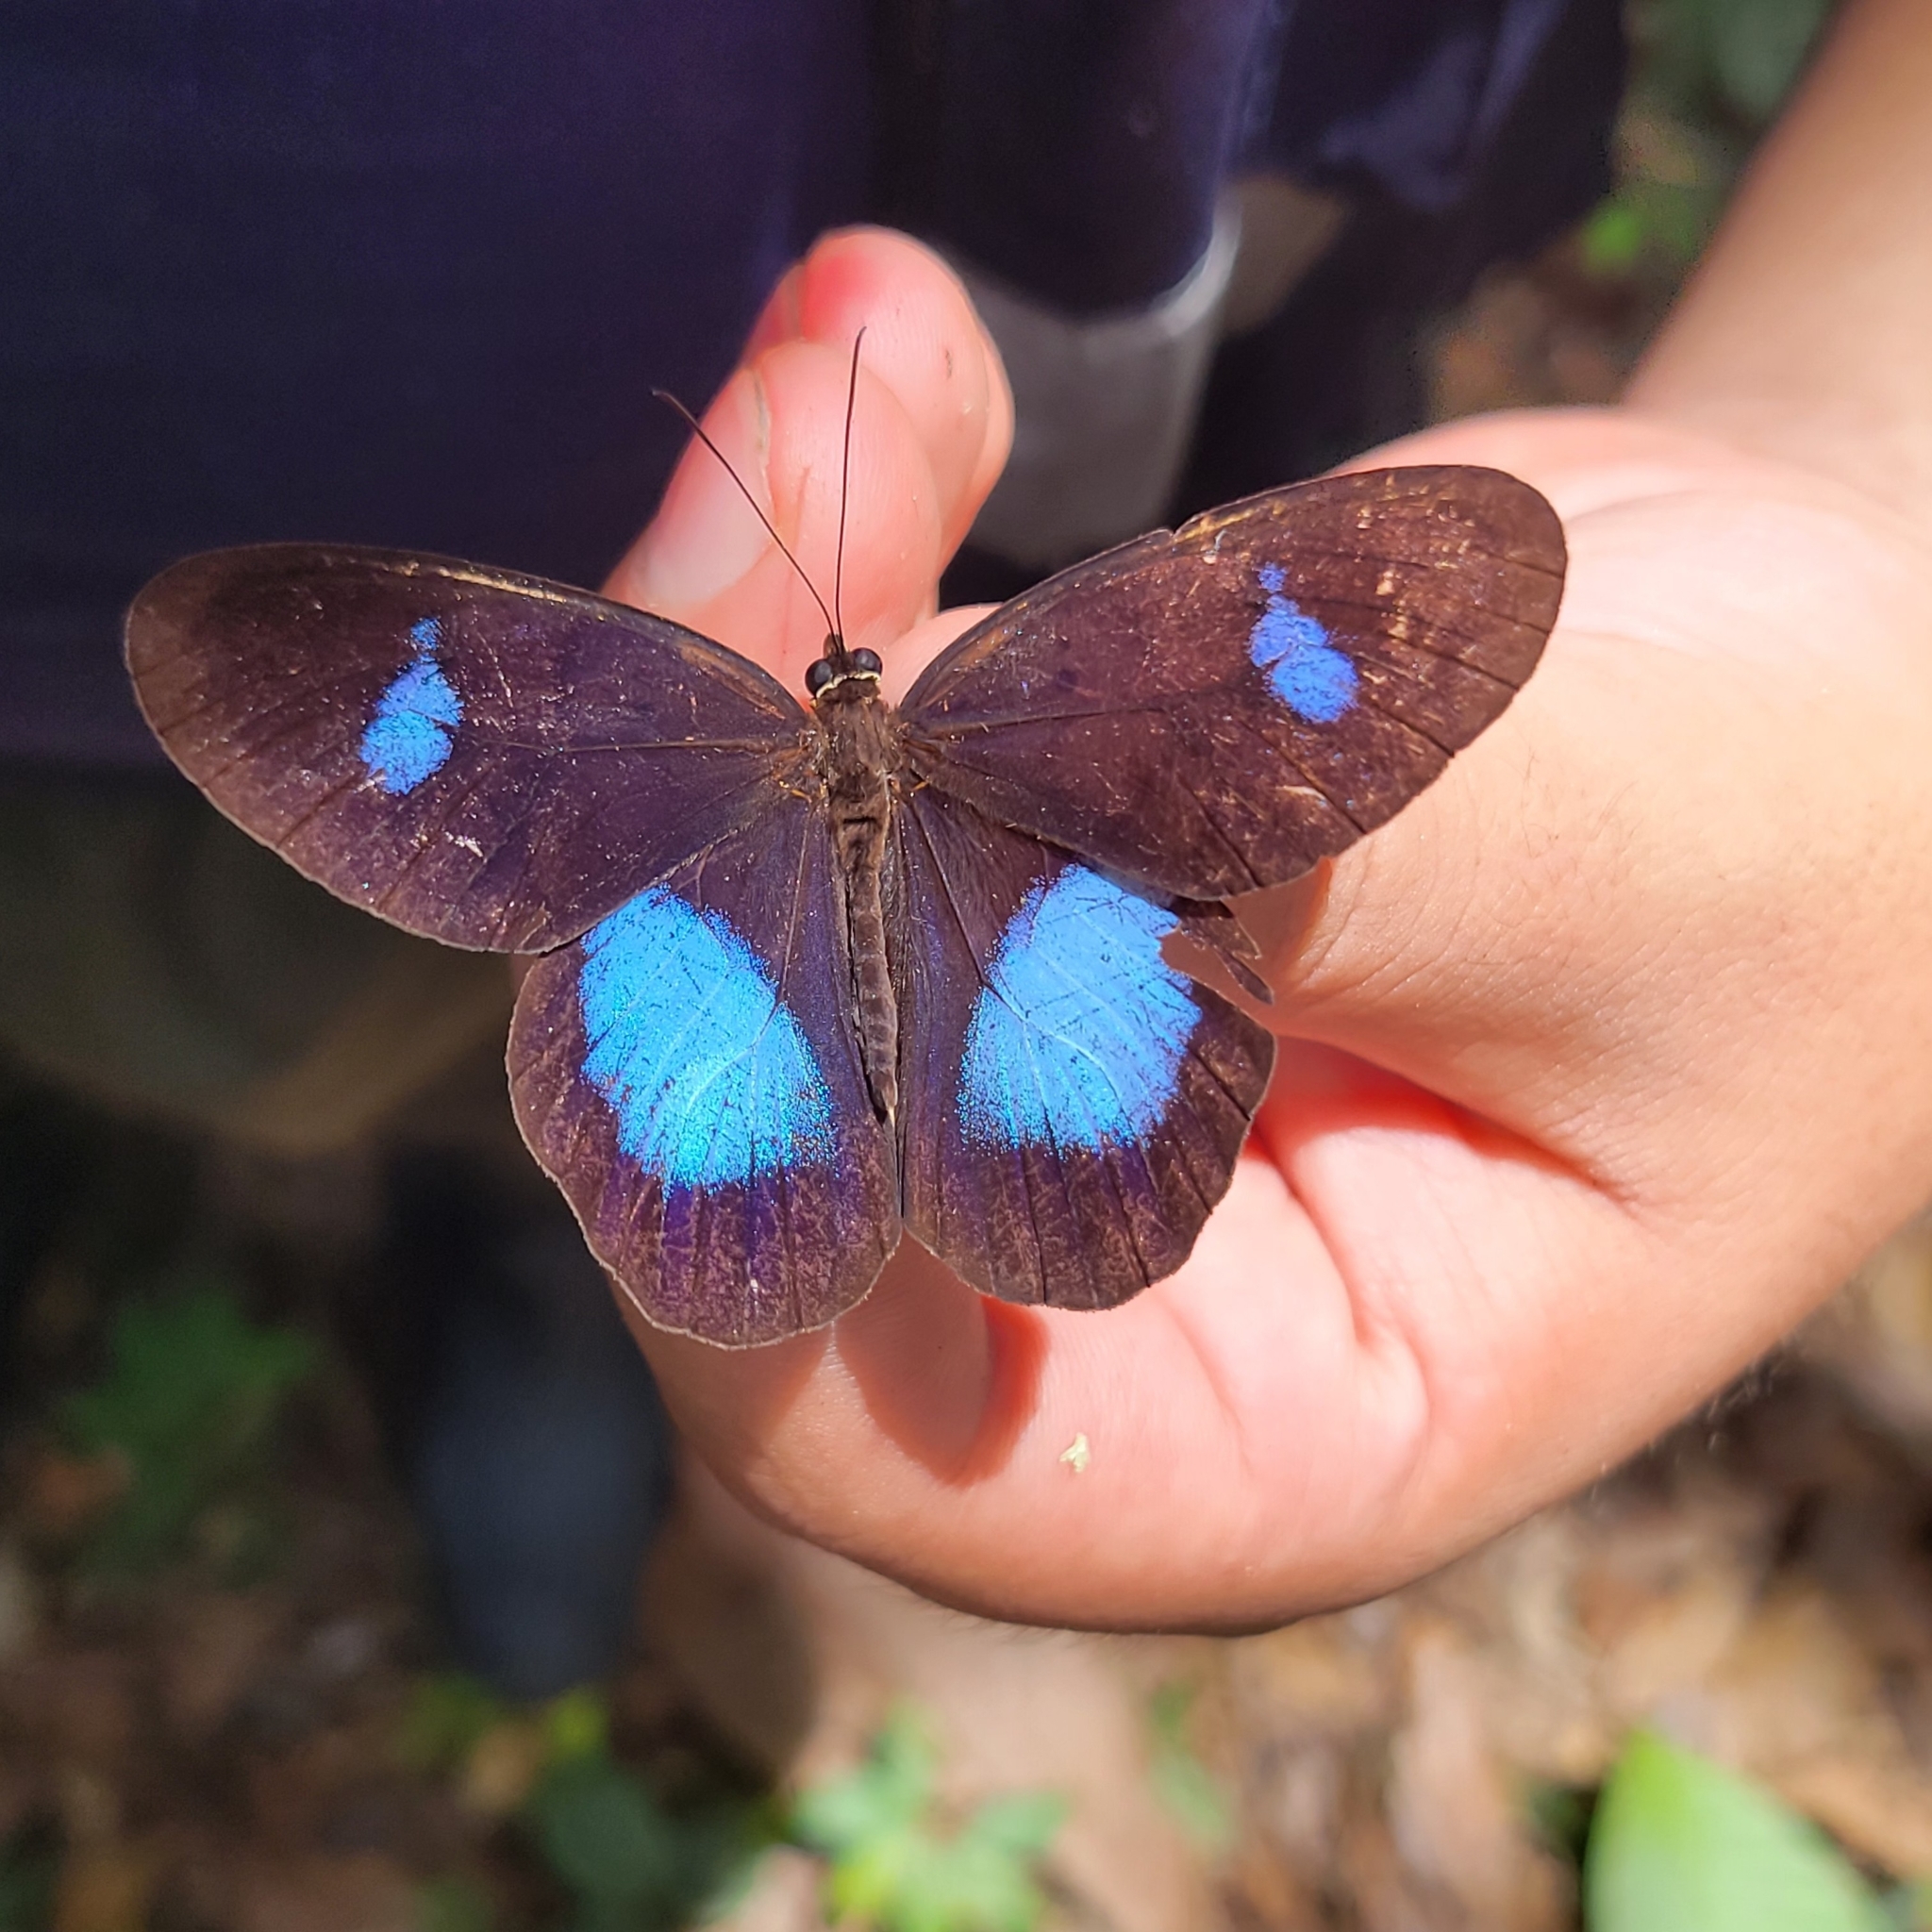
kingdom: Animalia
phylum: Arthropoda
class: Insecta
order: Lepidoptera
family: Nymphalidae
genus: Pierella
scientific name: Pierella hortona
